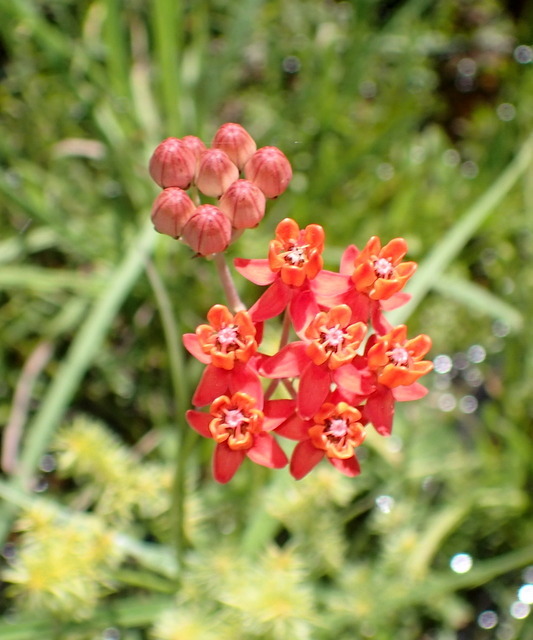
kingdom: Plantae
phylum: Tracheophyta
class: Magnoliopsida
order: Gentianales
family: Apocynaceae
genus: Asclepias
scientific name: Asclepias lanceolata
